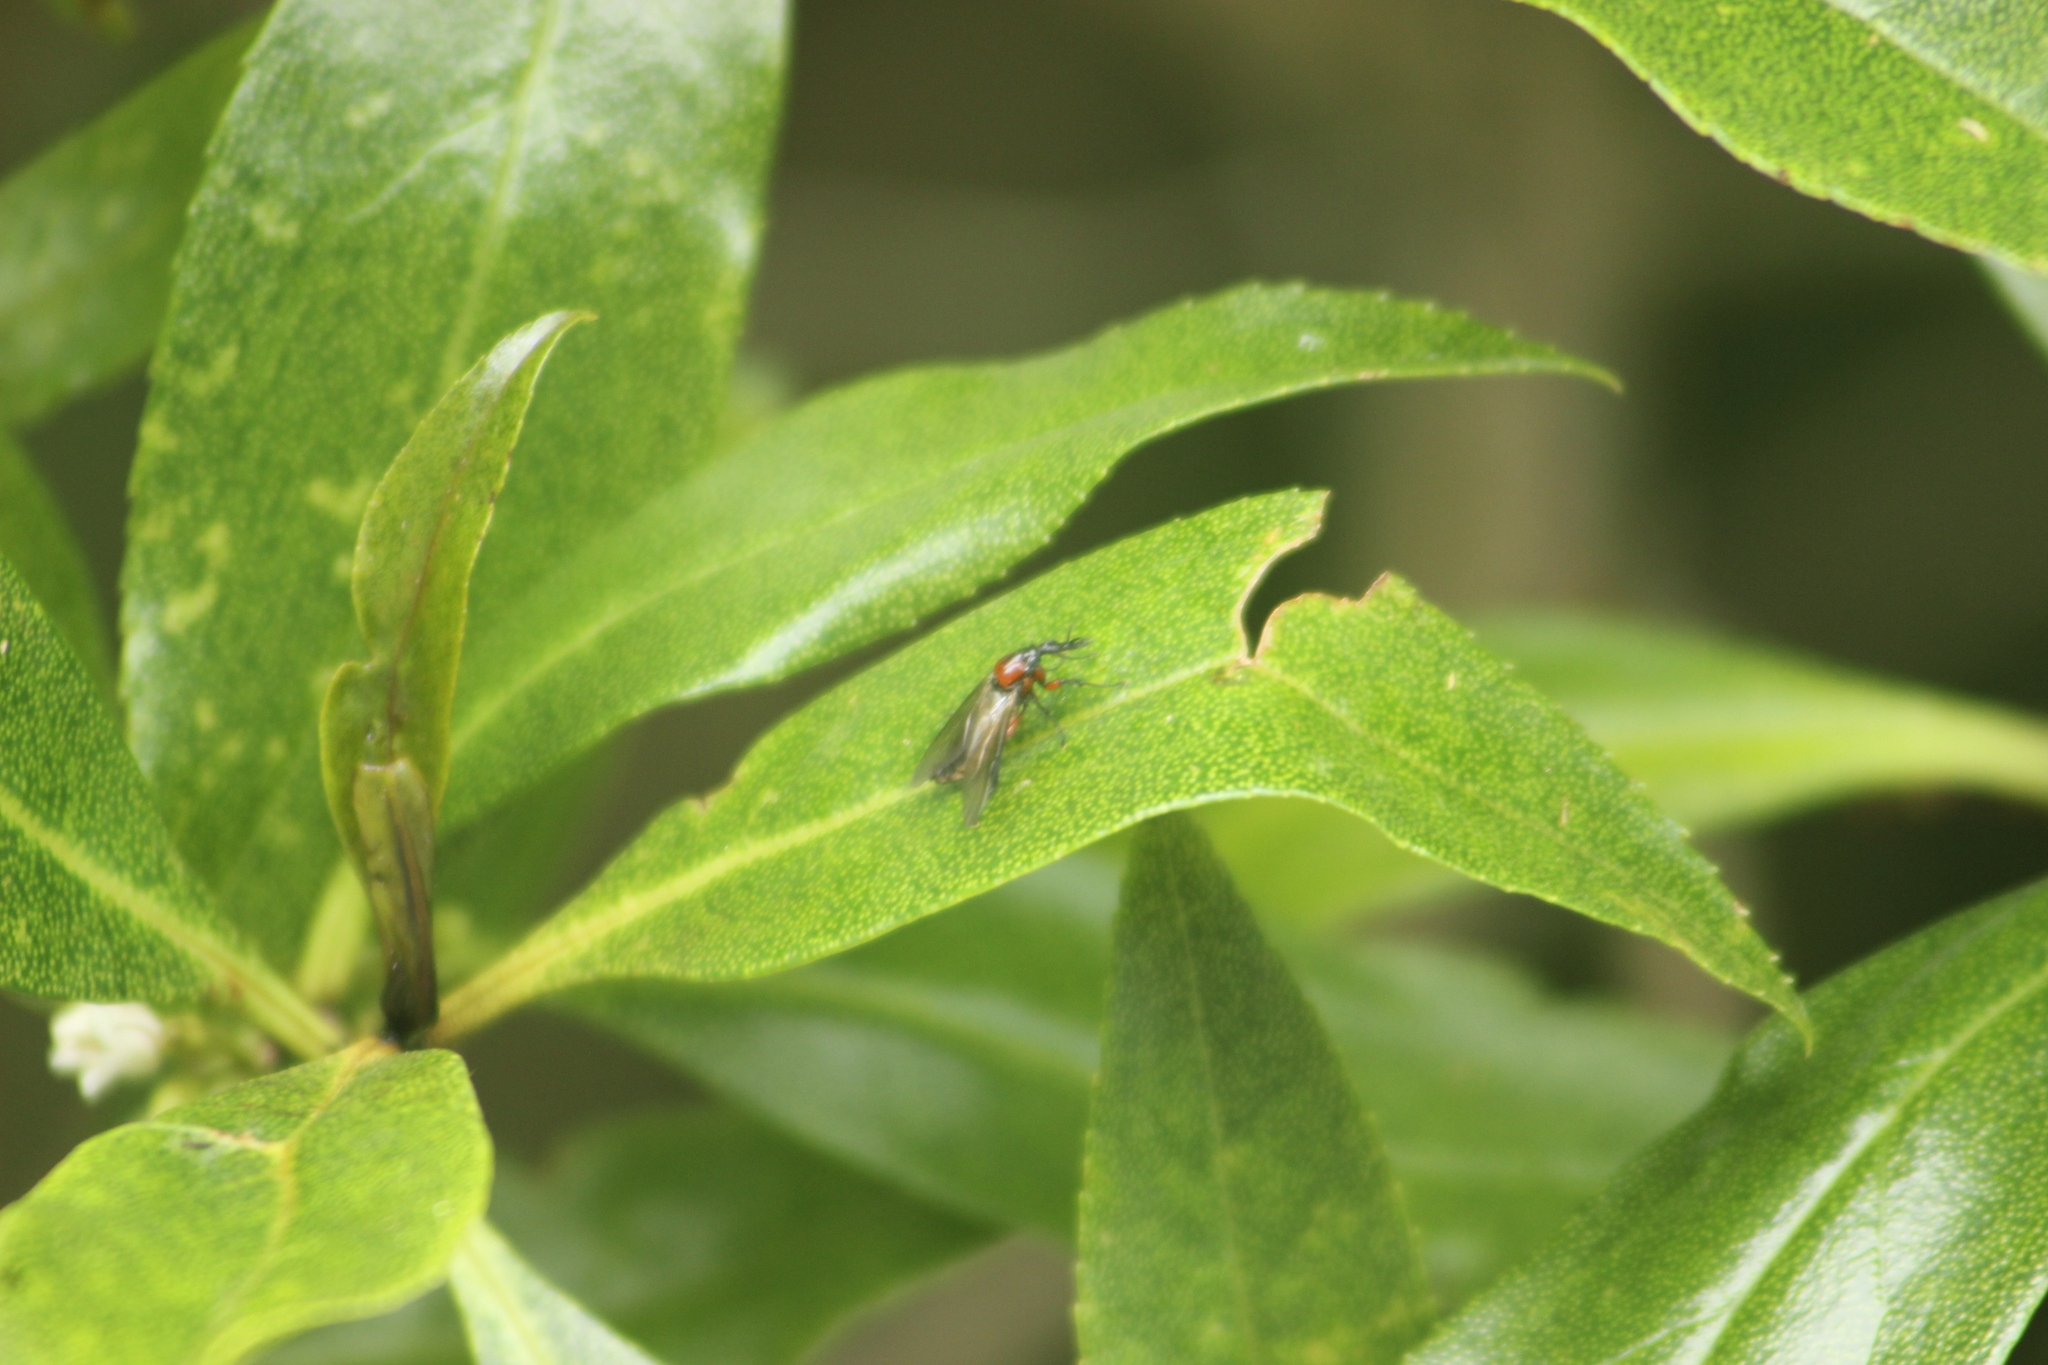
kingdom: Animalia
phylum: Arthropoda
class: Insecta
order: Diptera
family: Bibionidae
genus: Dilophus
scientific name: Dilophus nigrostigma
